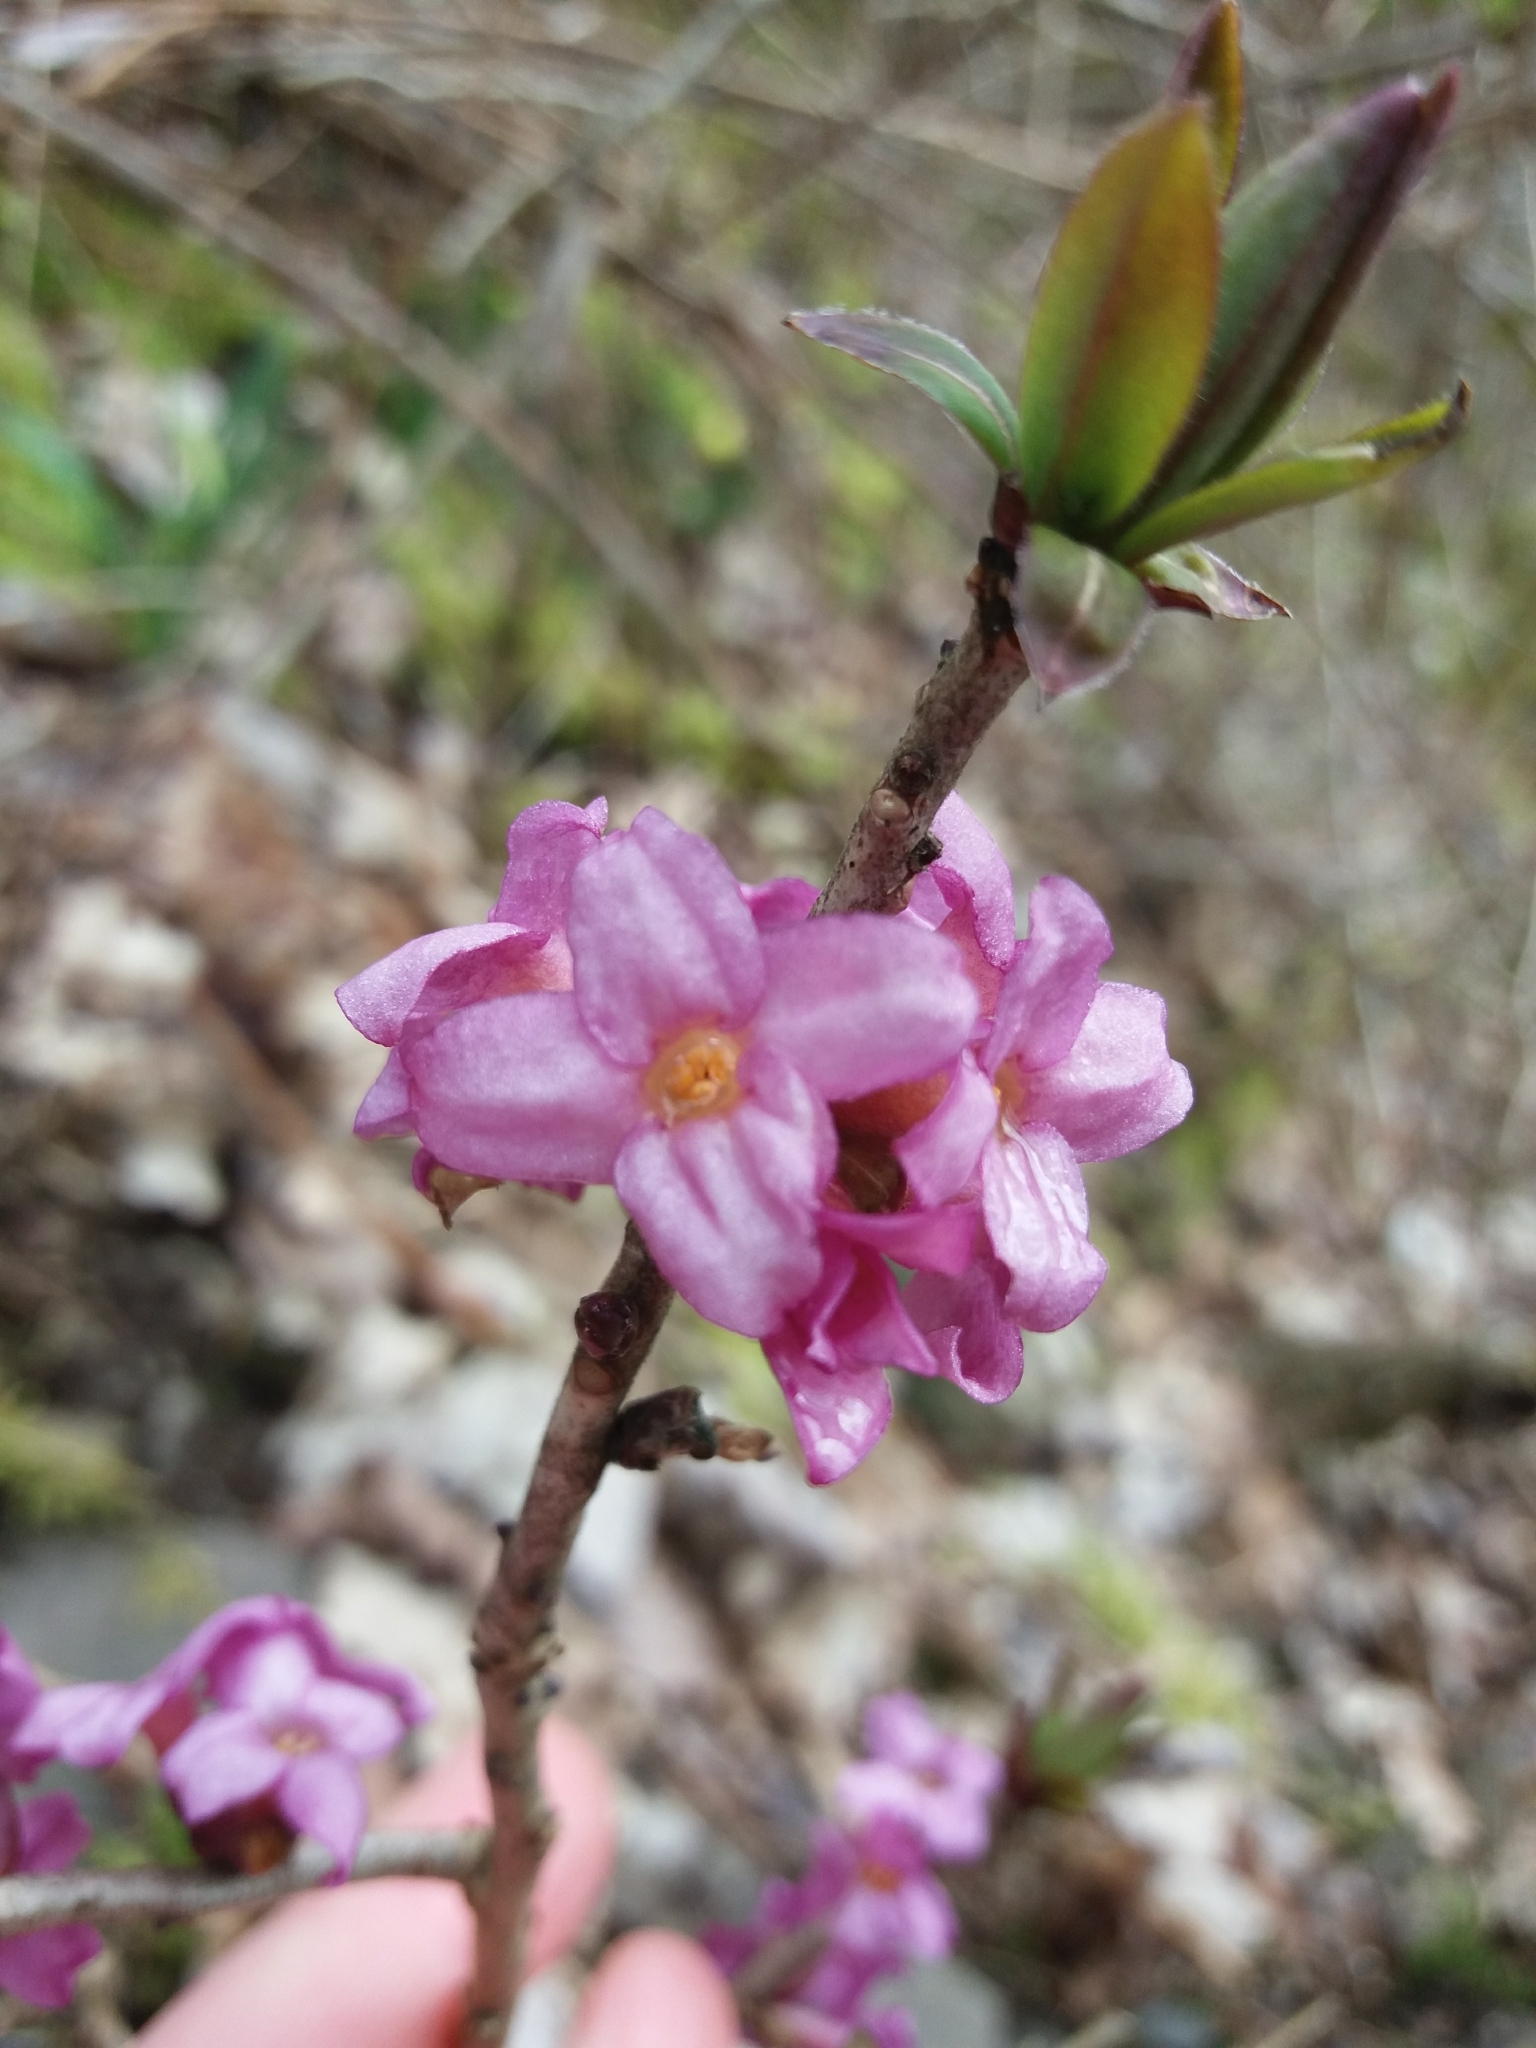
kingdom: Plantae
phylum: Tracheophyta
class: Magnoliopsida
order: Malvales
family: Thymelaeaceae
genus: Daphne
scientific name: Daphne mezereum
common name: Mezereon
